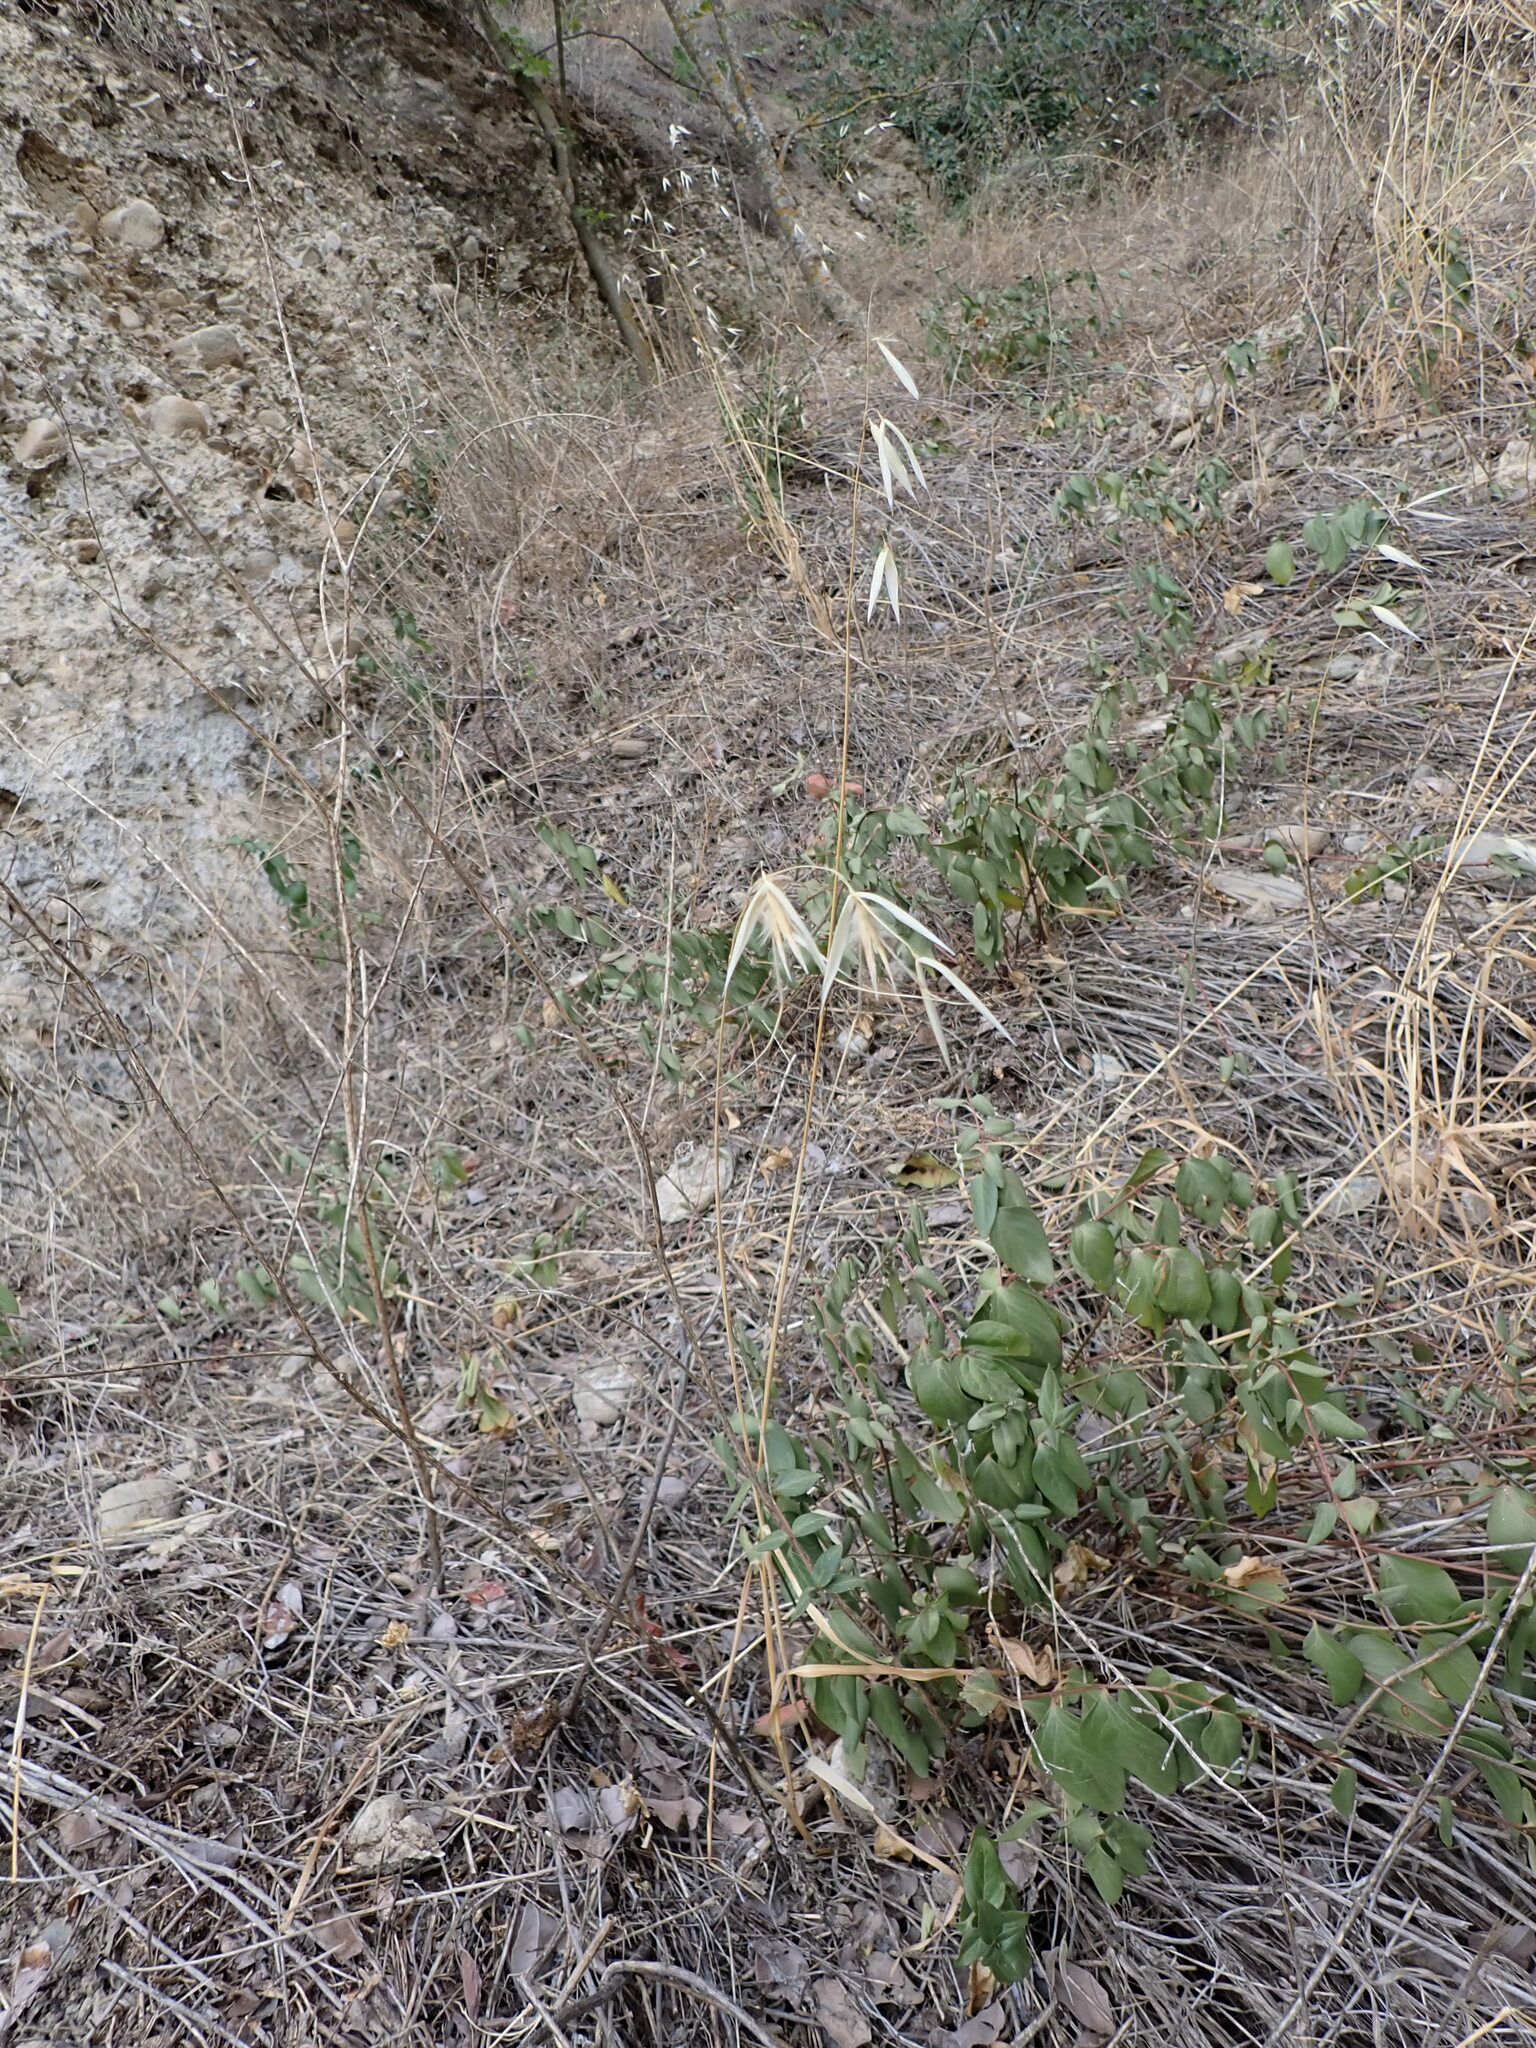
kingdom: Plantae
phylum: Tracheophyta
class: Liliopsida
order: Poales
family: Poaceae
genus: Avena
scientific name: Avena sterilis
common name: Animated oat
